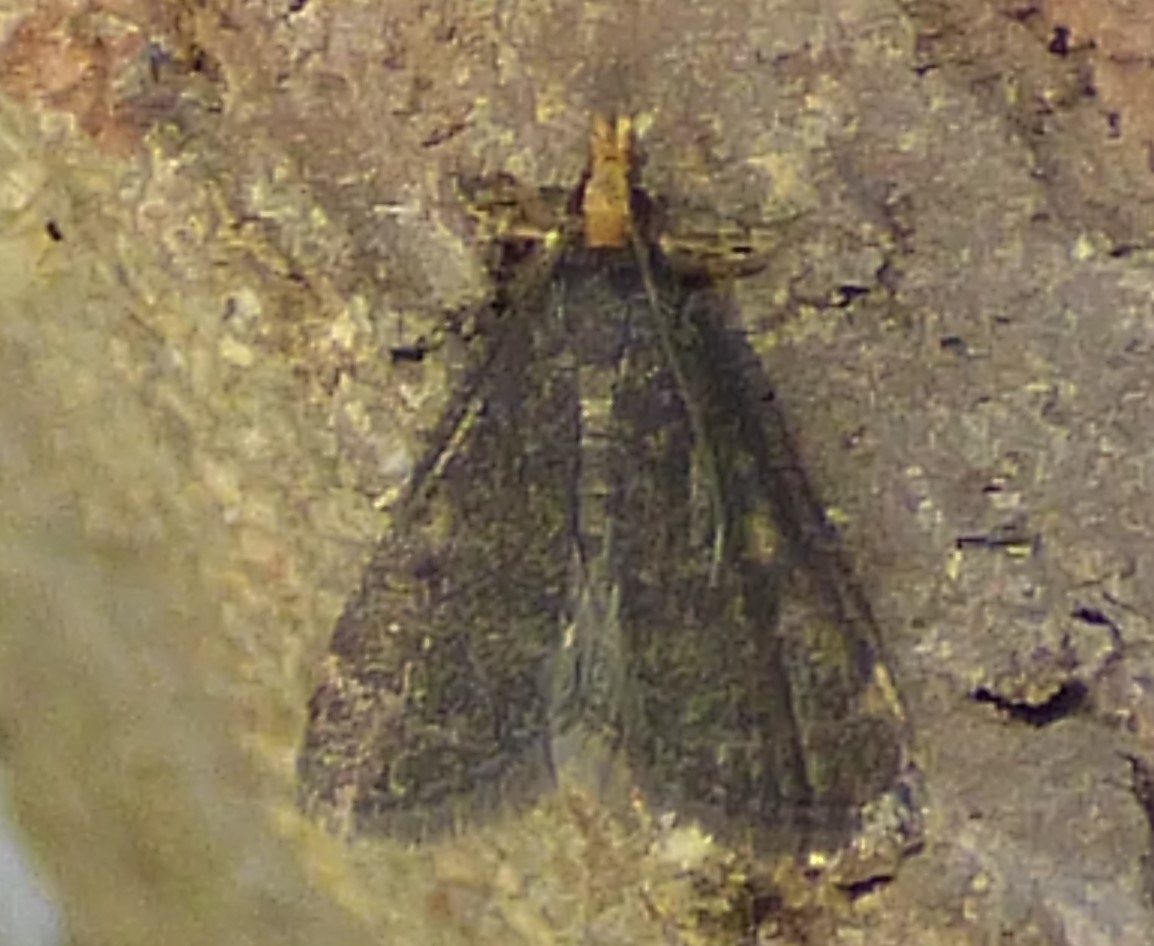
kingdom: Animalia
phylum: Arthropoda
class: Insecta
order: Lepidoptera
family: Crambidae
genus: Pyrausta
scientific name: Pyrausta merrickalis
